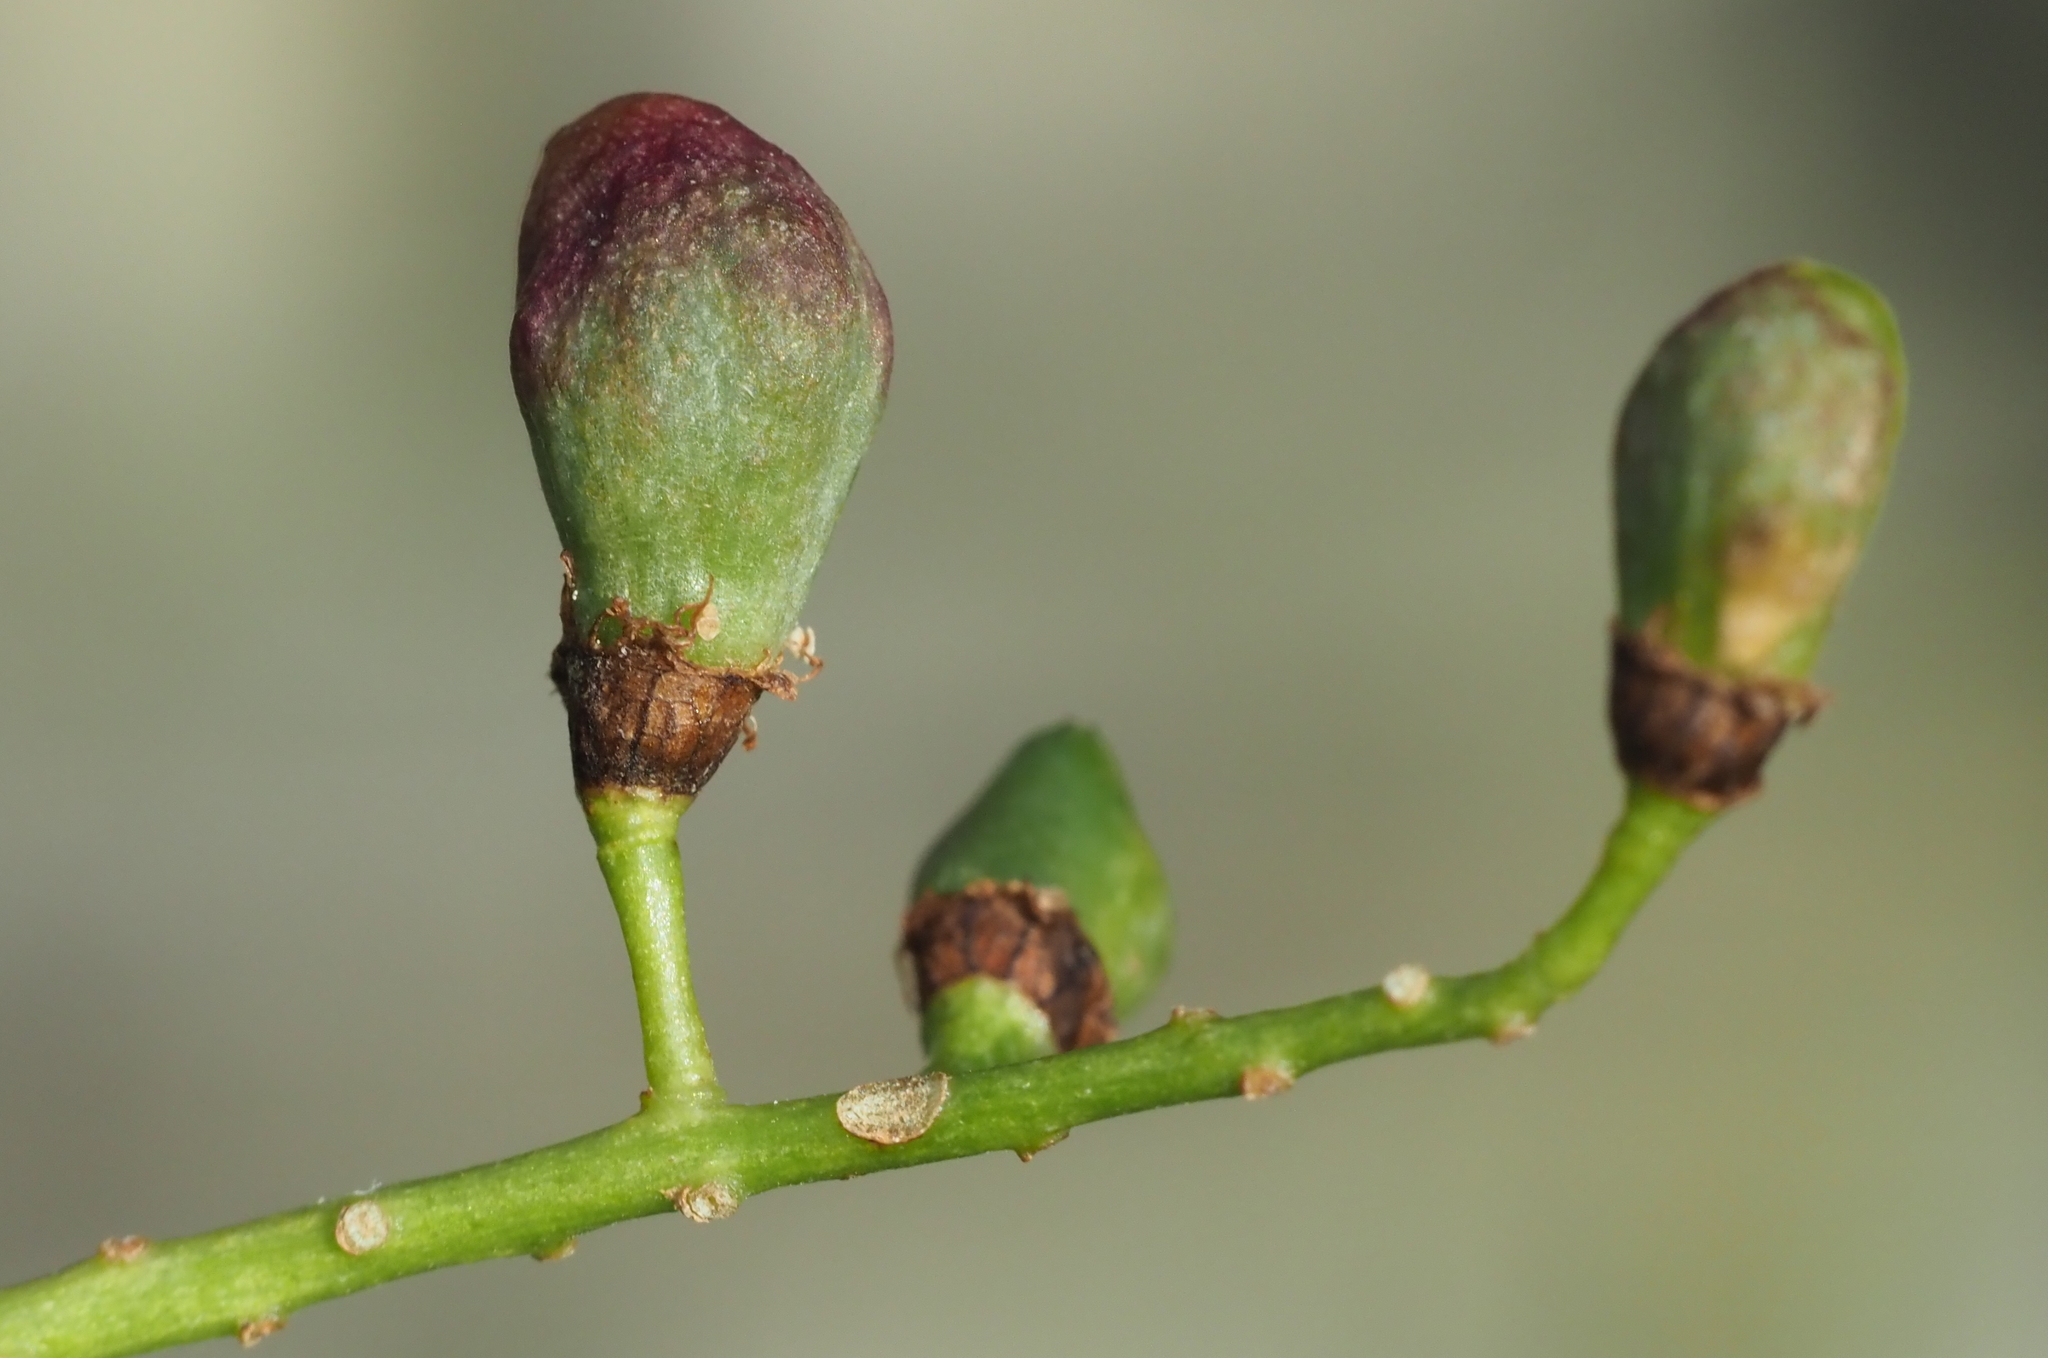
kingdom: Animalia
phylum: Arthropoda
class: Insecta
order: Diptera
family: Cecidomyiidae
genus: Contarinia
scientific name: Contarinia virginianiae
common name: Chokecherry midge
